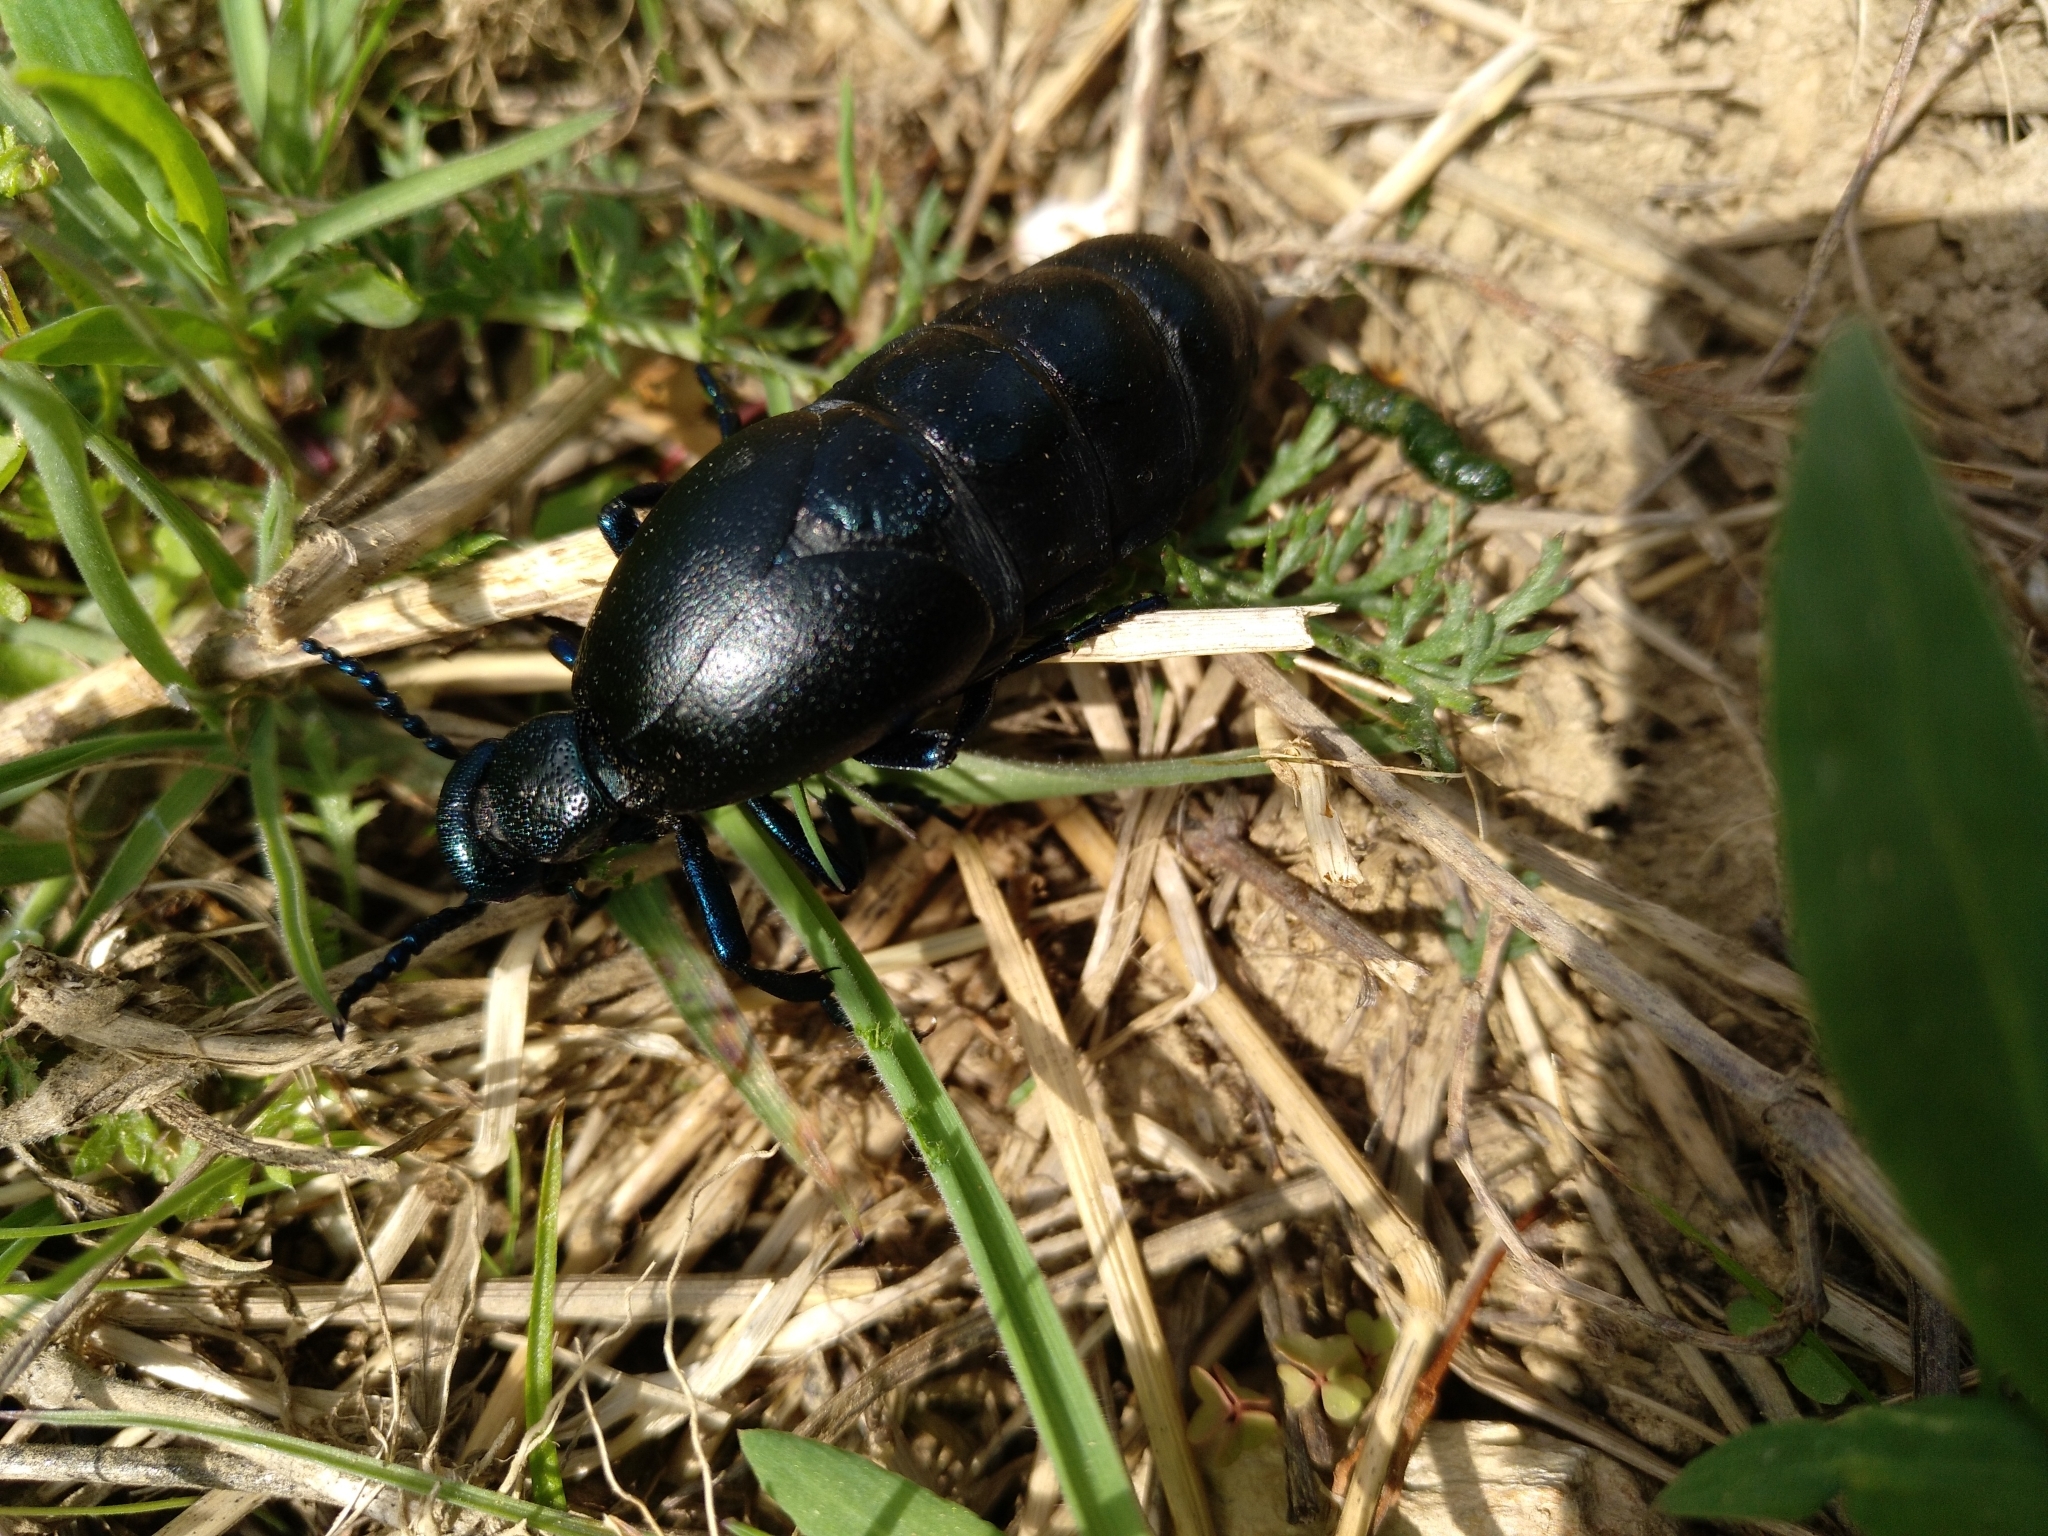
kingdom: Animalia
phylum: Arthropoda
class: Insecta
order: Coleoptera
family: Meloidae
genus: Meloe
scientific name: Meloe proscarabaeus
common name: Black oil-beetle
